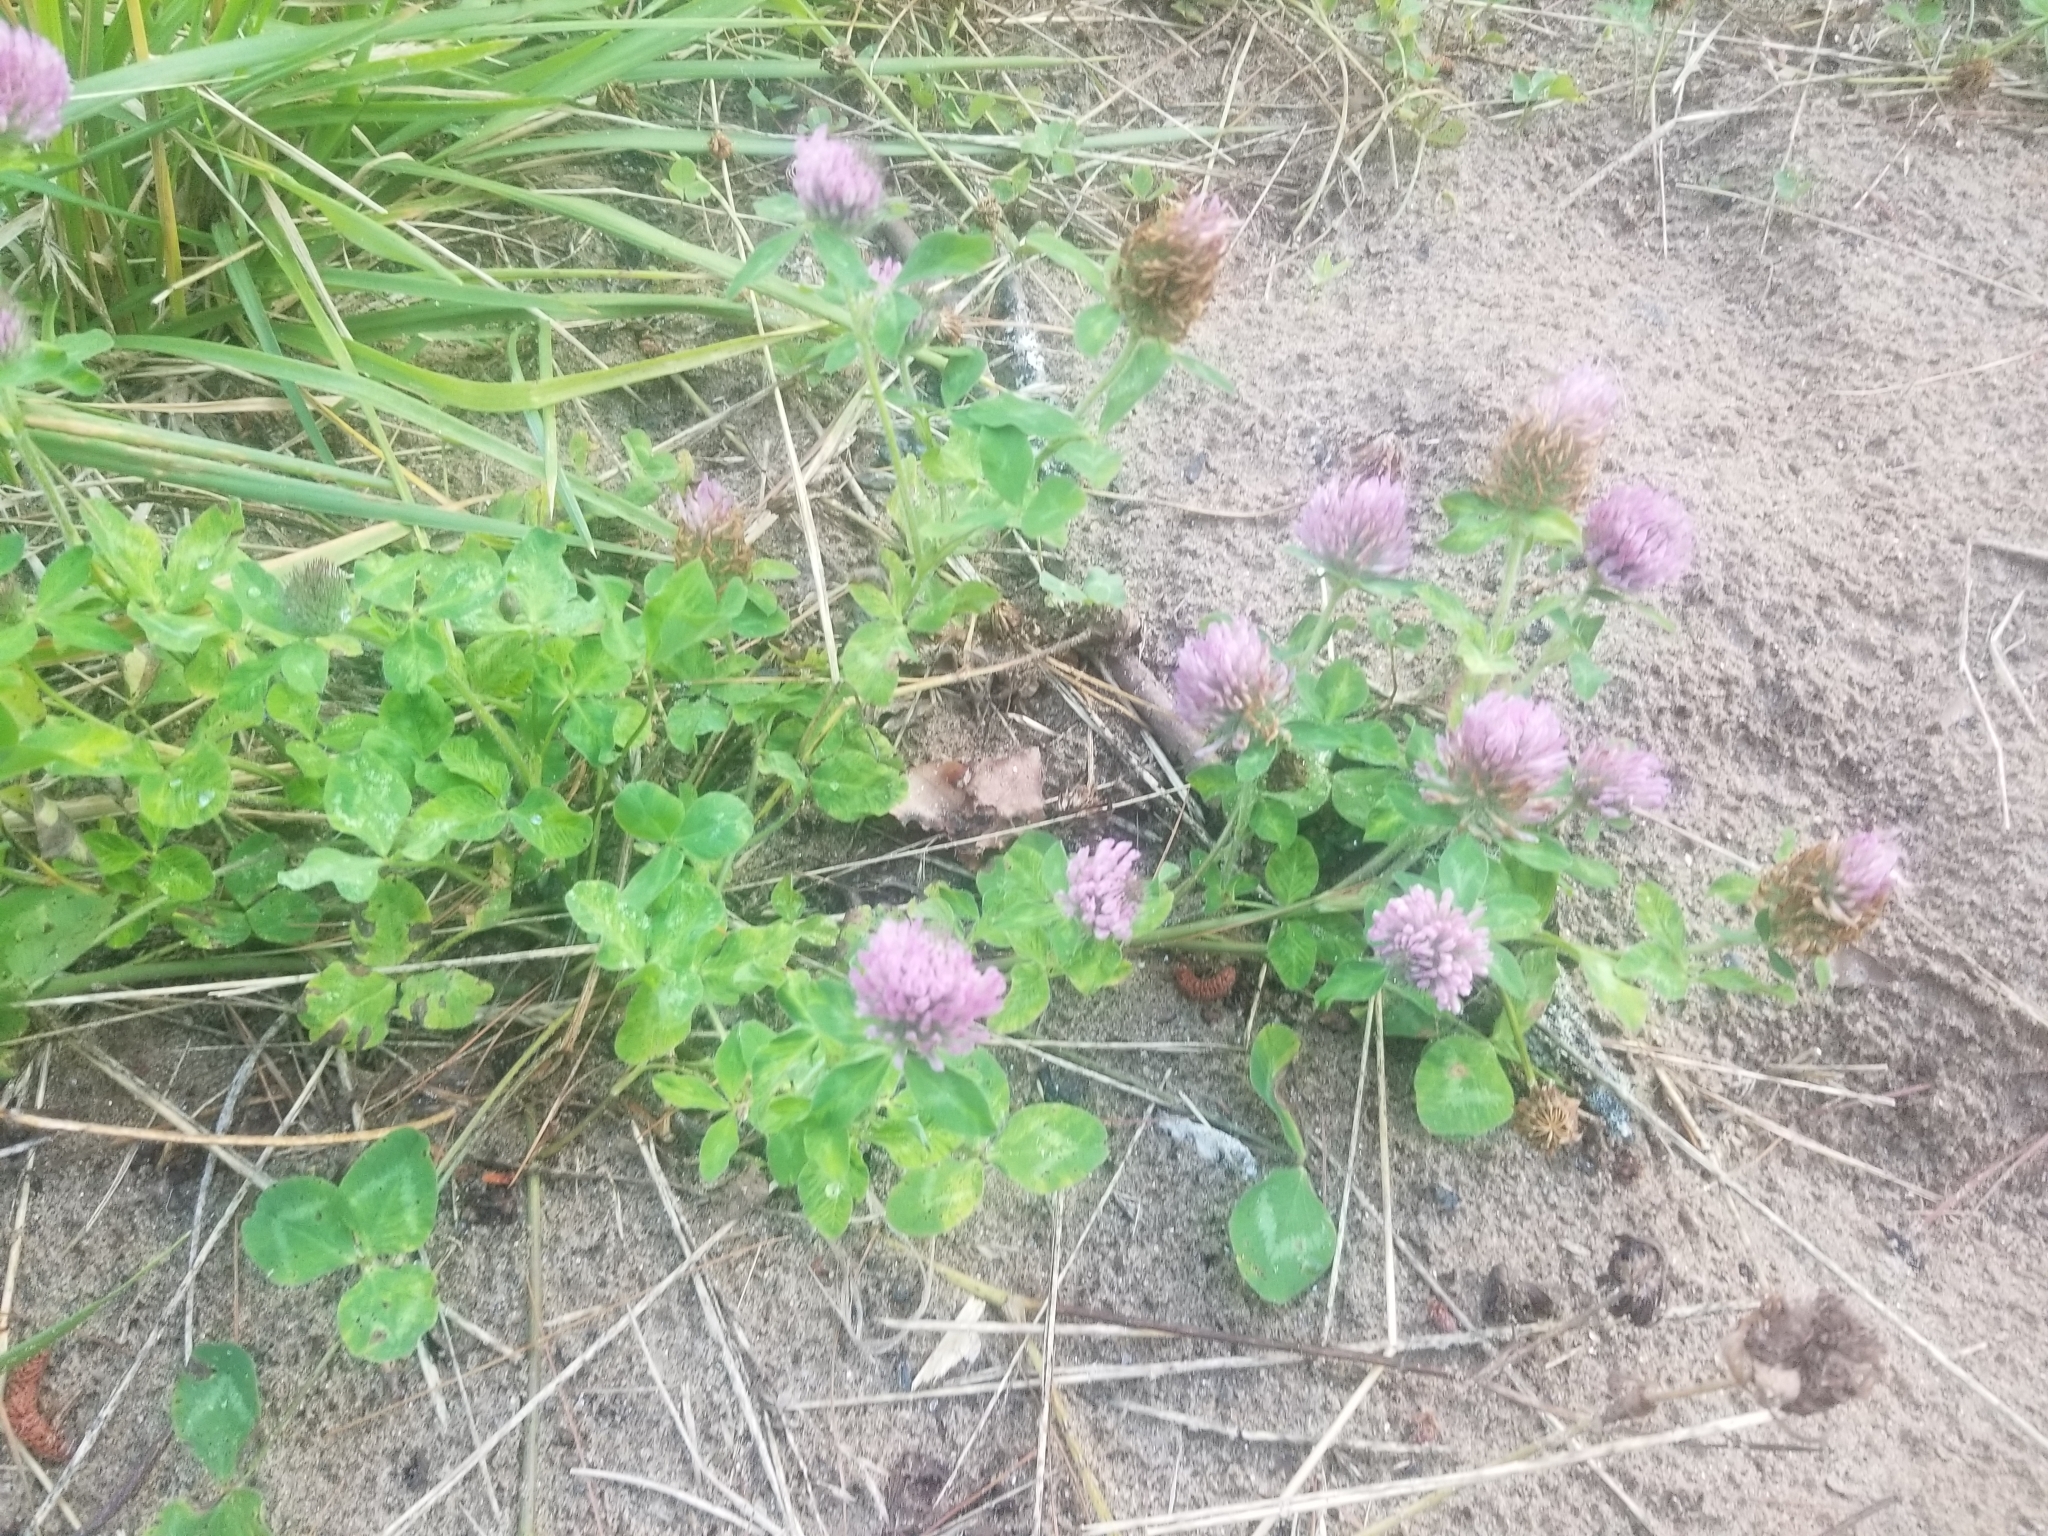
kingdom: Plantae
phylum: Tracheophyta
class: Magnoliopsida
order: Fabales
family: Fabaceae
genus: Trifolium
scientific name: Trifolium pratense
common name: Red clover
